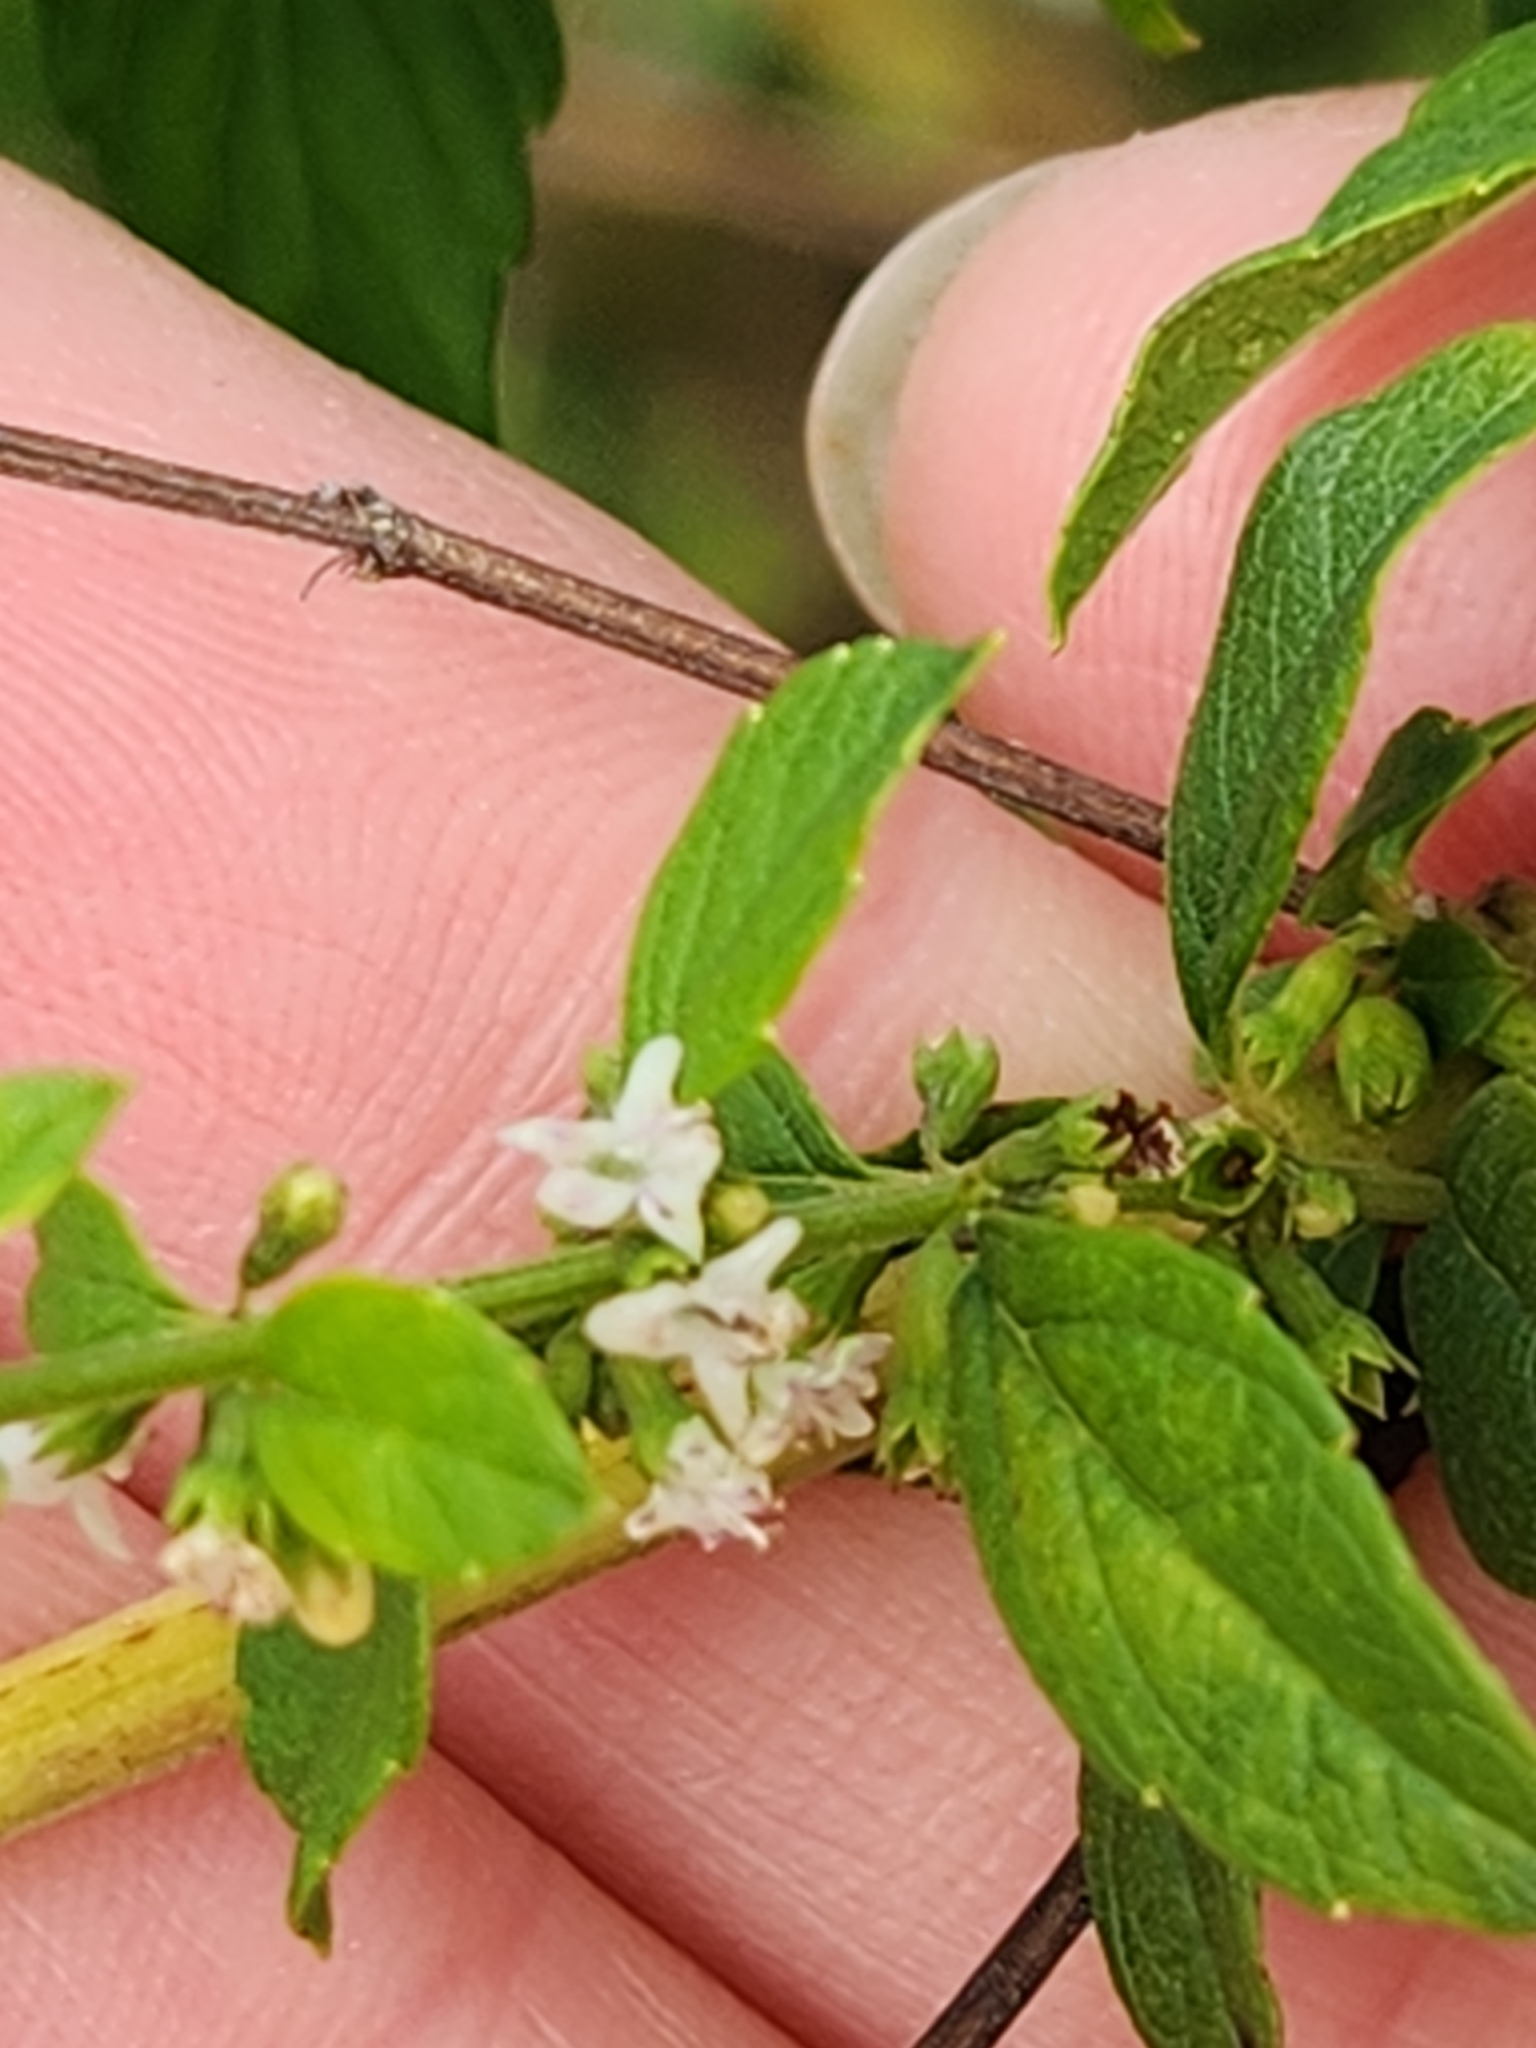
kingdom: Plantae
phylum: Tracheophyta
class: Magnoliopsida
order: Lamiales
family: Lamiaceae
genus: Condea
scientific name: Condea verticillata
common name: John charles
